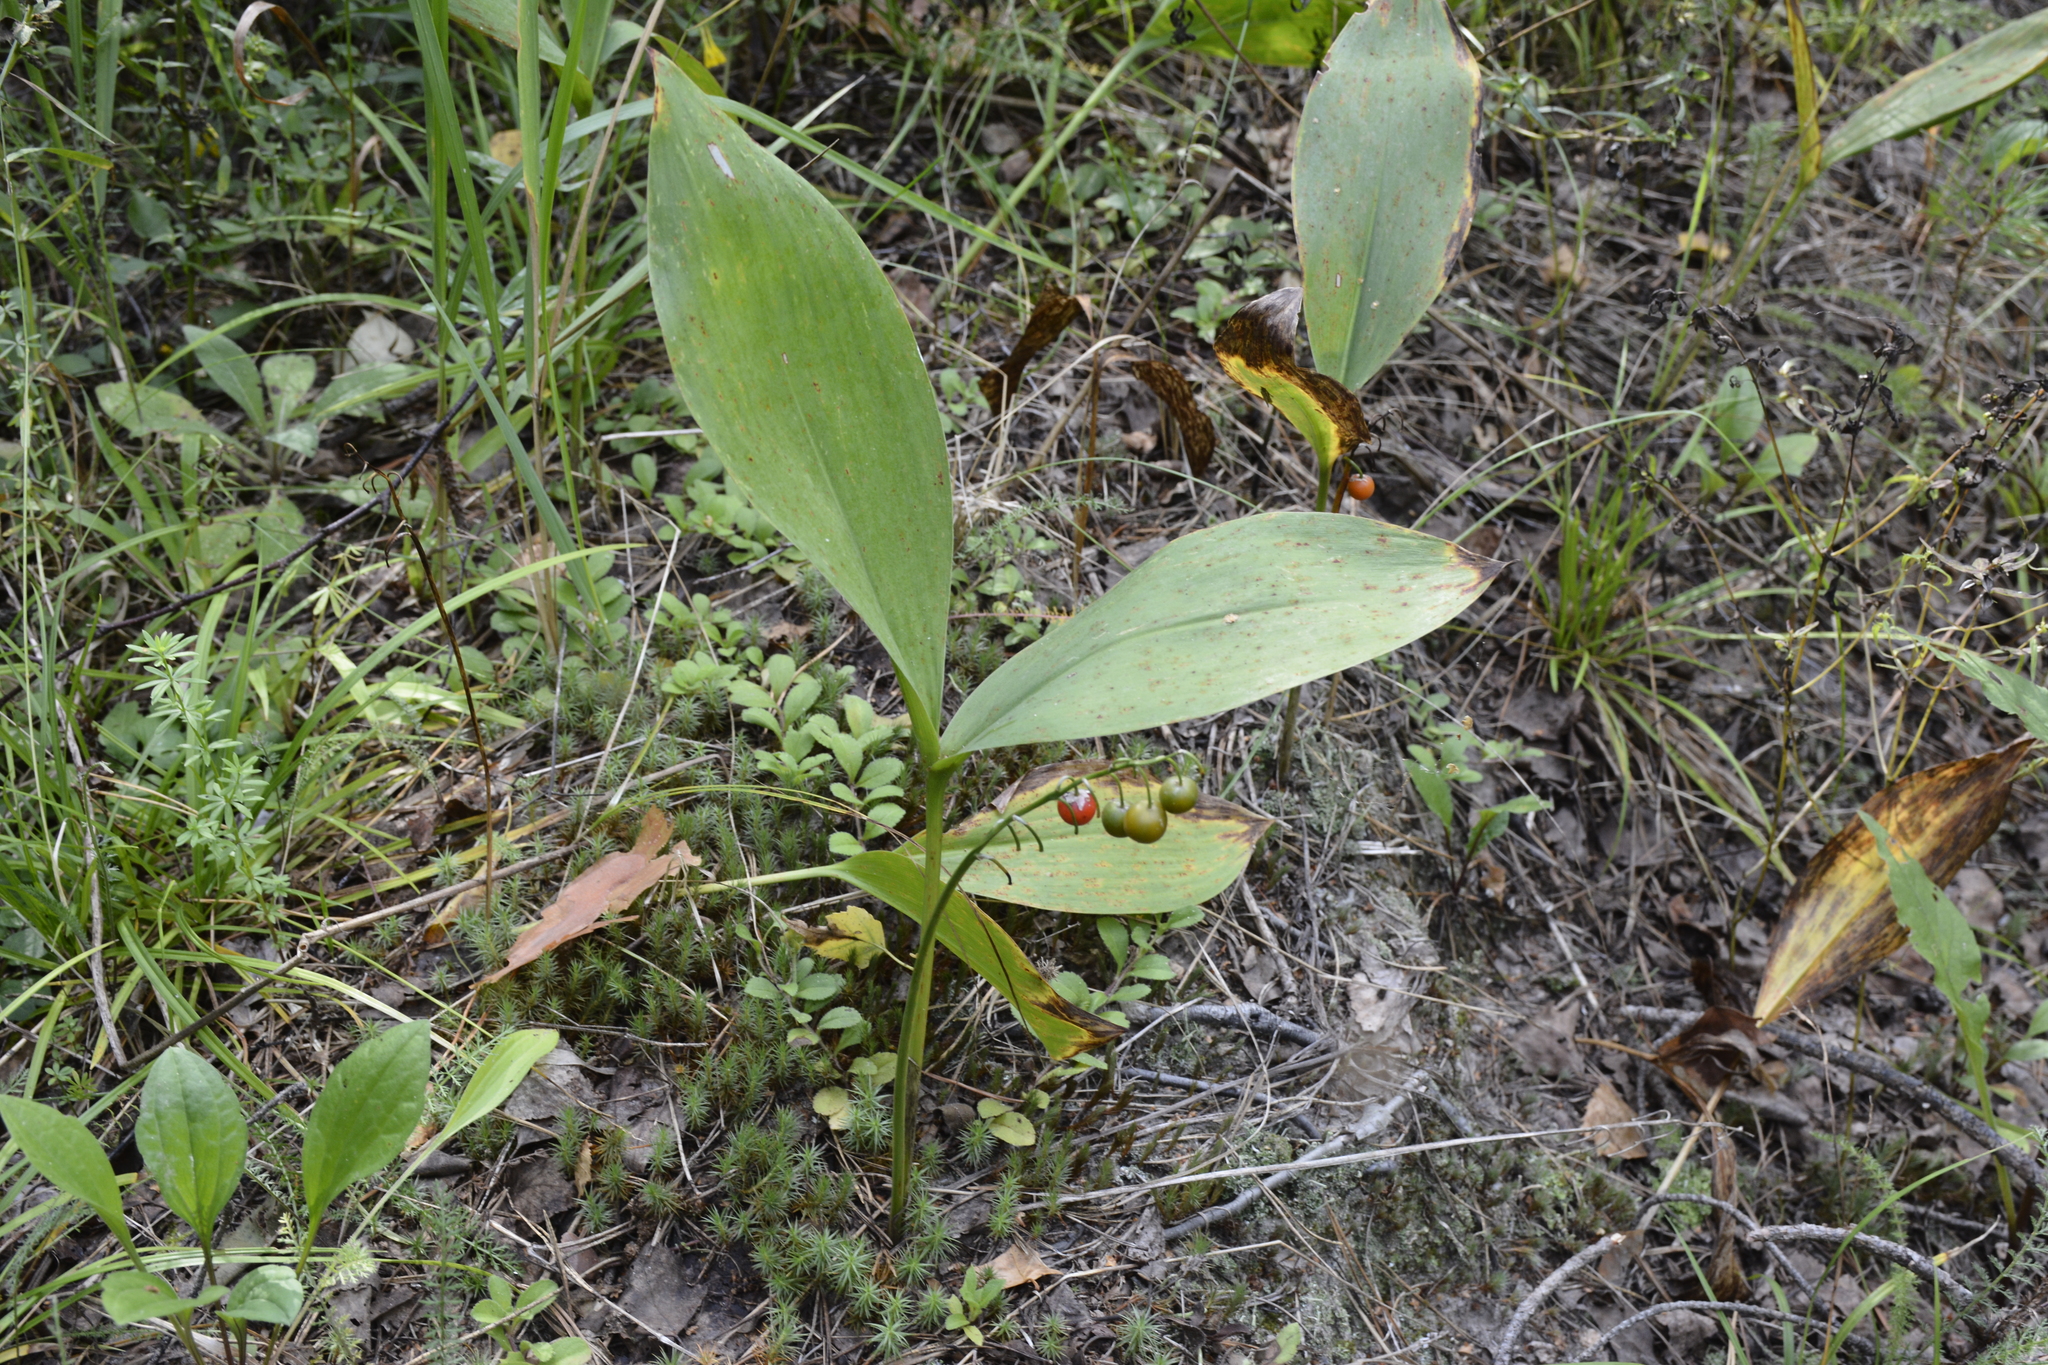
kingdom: Plantae
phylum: Tracheophyta
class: Liliopsida
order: Asparagales
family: Asparagaceae
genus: Convallaria
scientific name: Convallaria majalis
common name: Lily-of-the-valley
